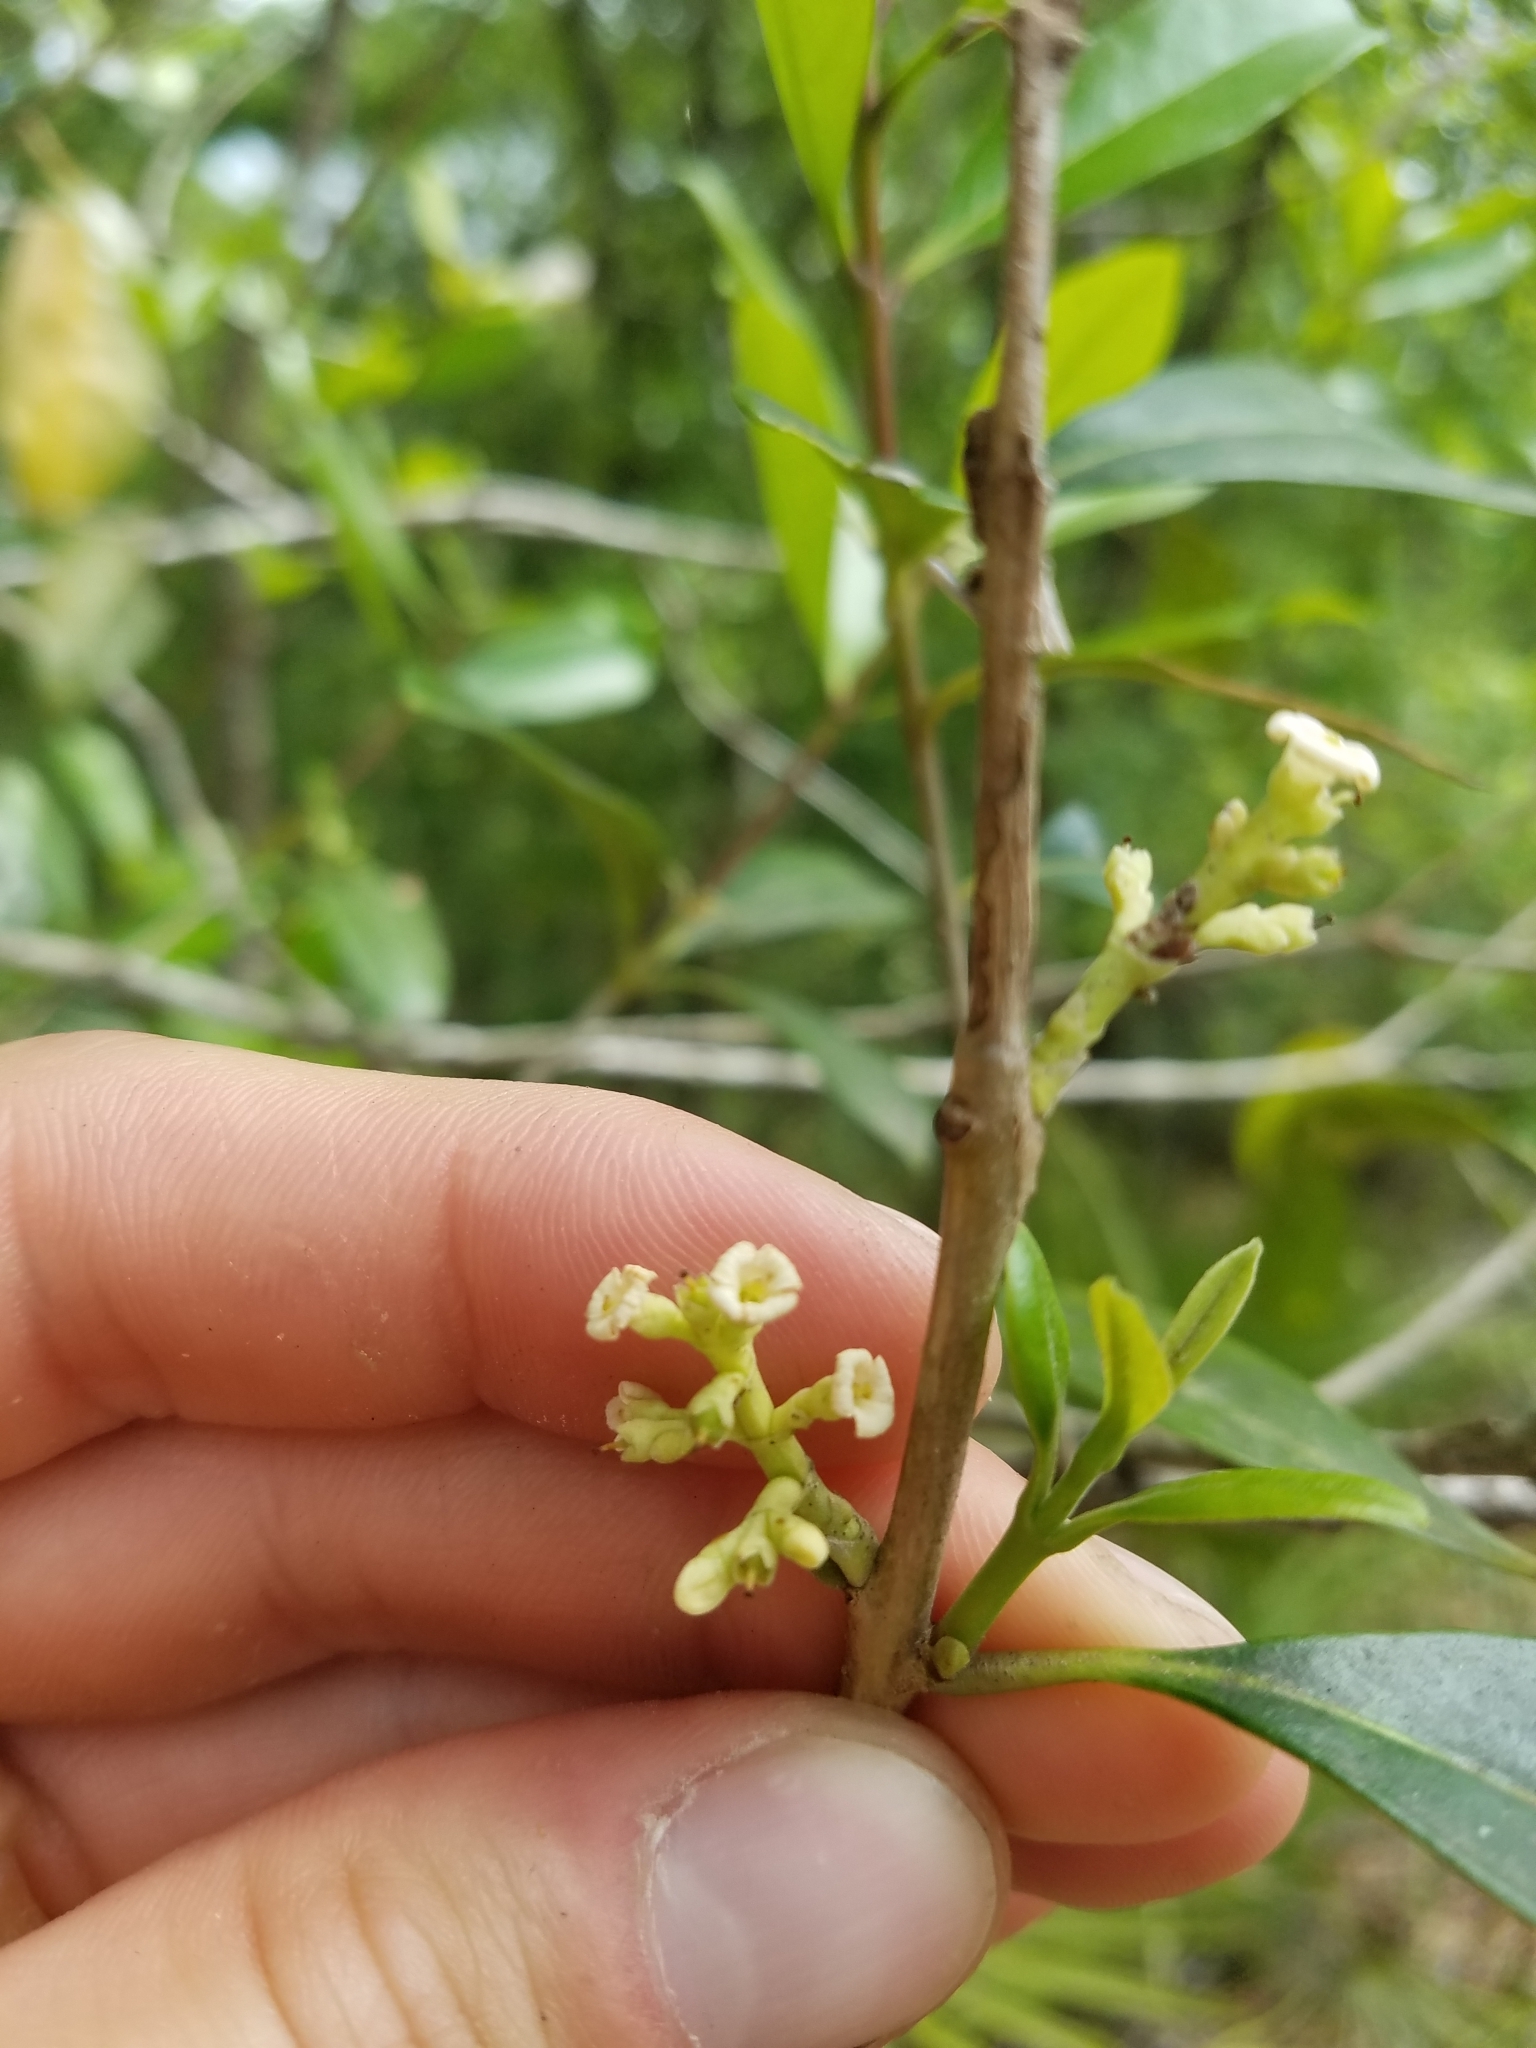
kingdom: Plantae
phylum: Tracheophyta
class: Magnoliopsida
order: Lamiales
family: Oleaceae
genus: Cartrema
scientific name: Cartrema americana
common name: Devilwood
